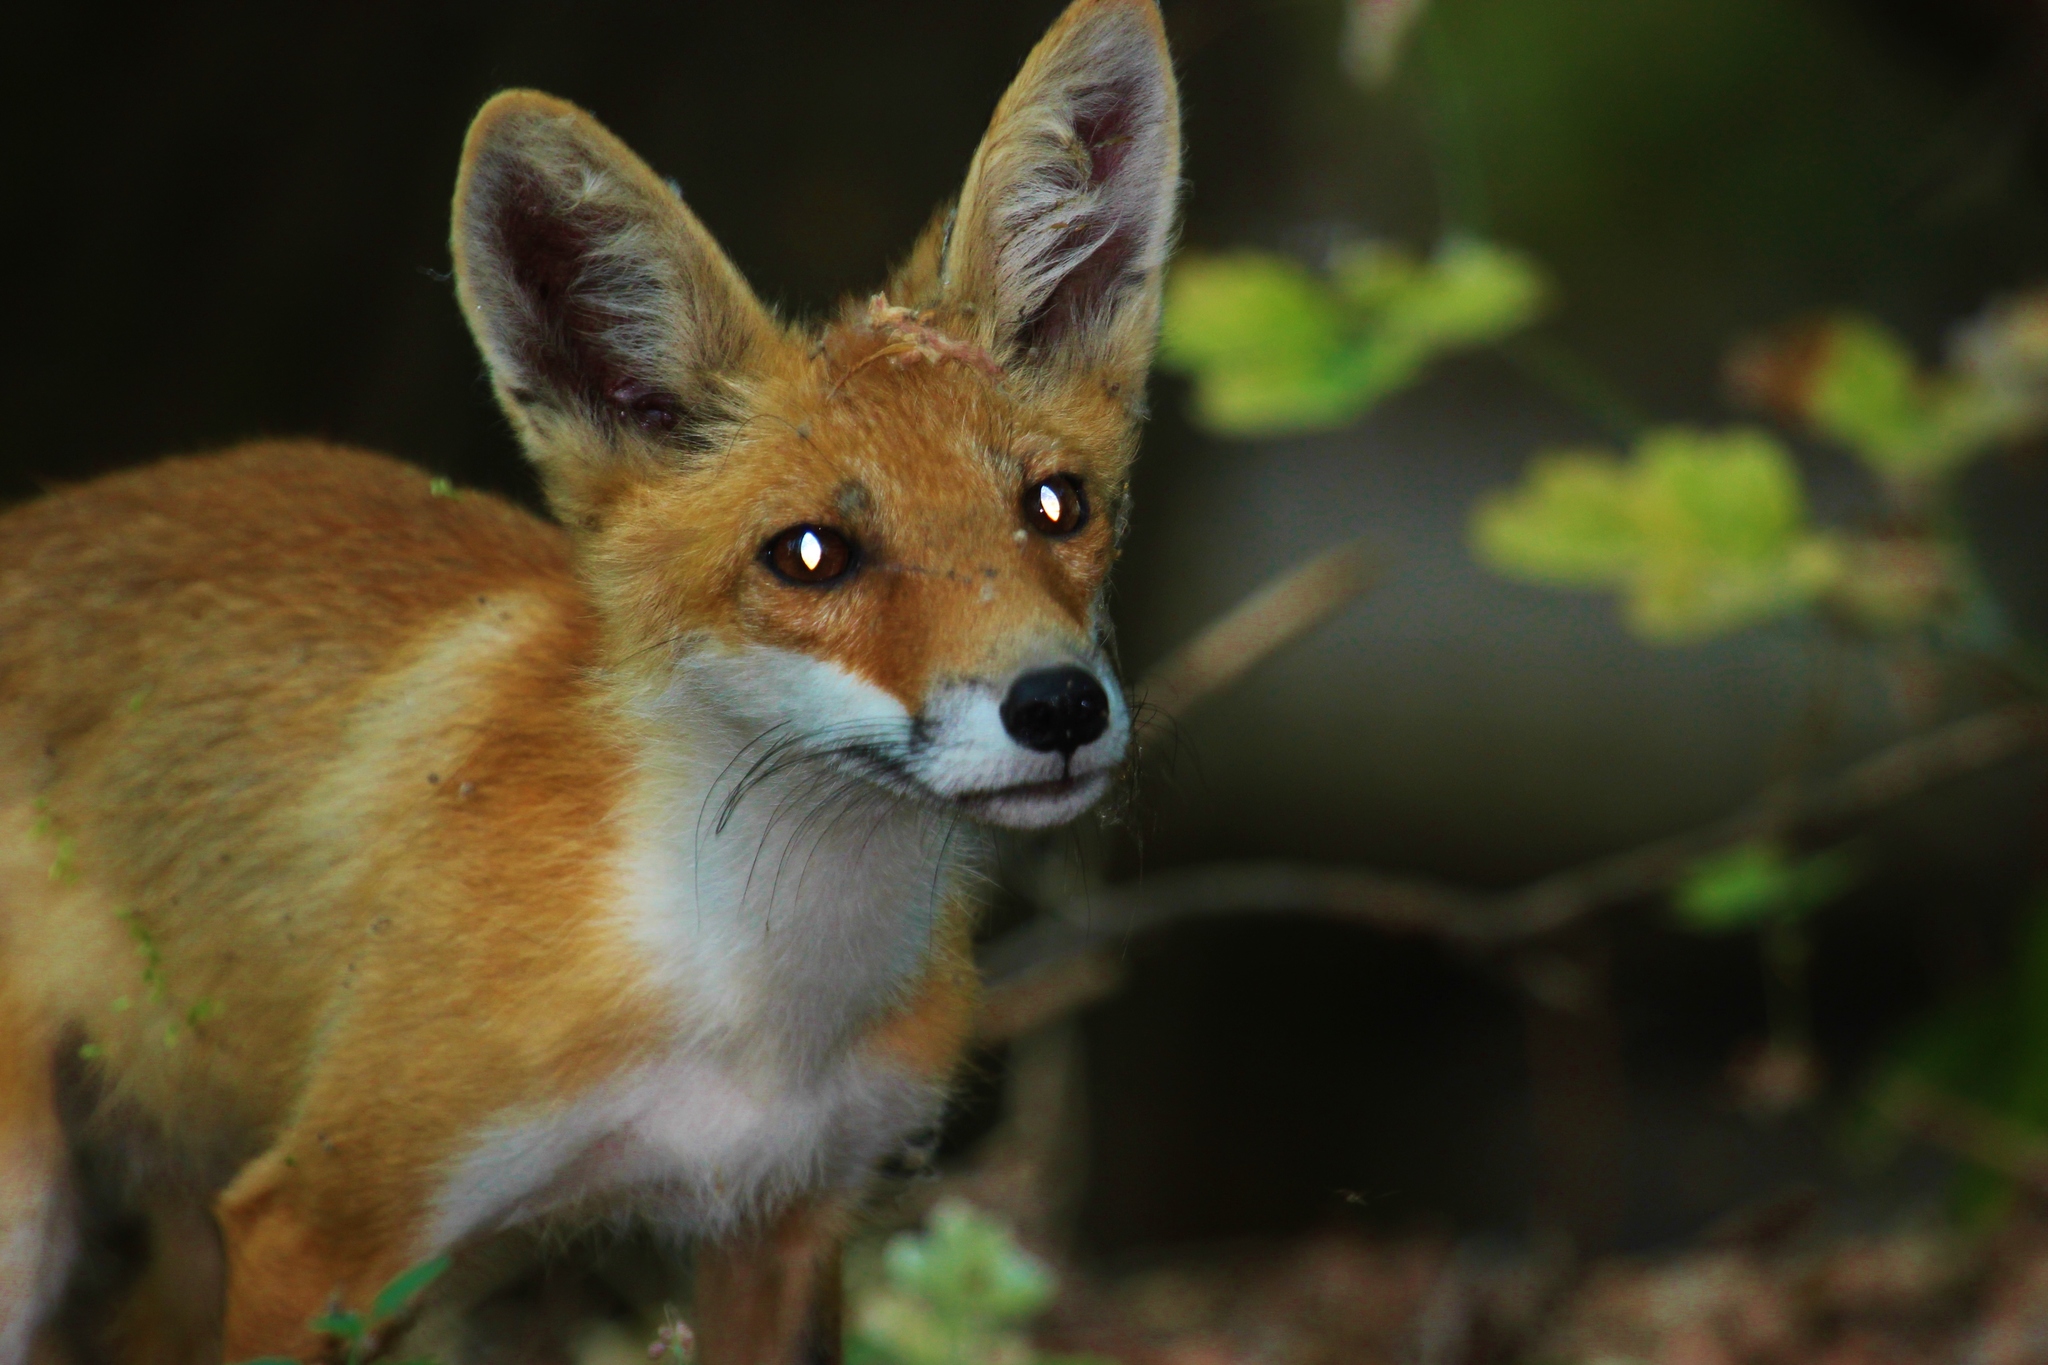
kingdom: Animalia
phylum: Chordata
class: Mammalia
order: Carnivora
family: Canidae
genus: Vulpes
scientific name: Vulpes vulpes
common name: Red fox
